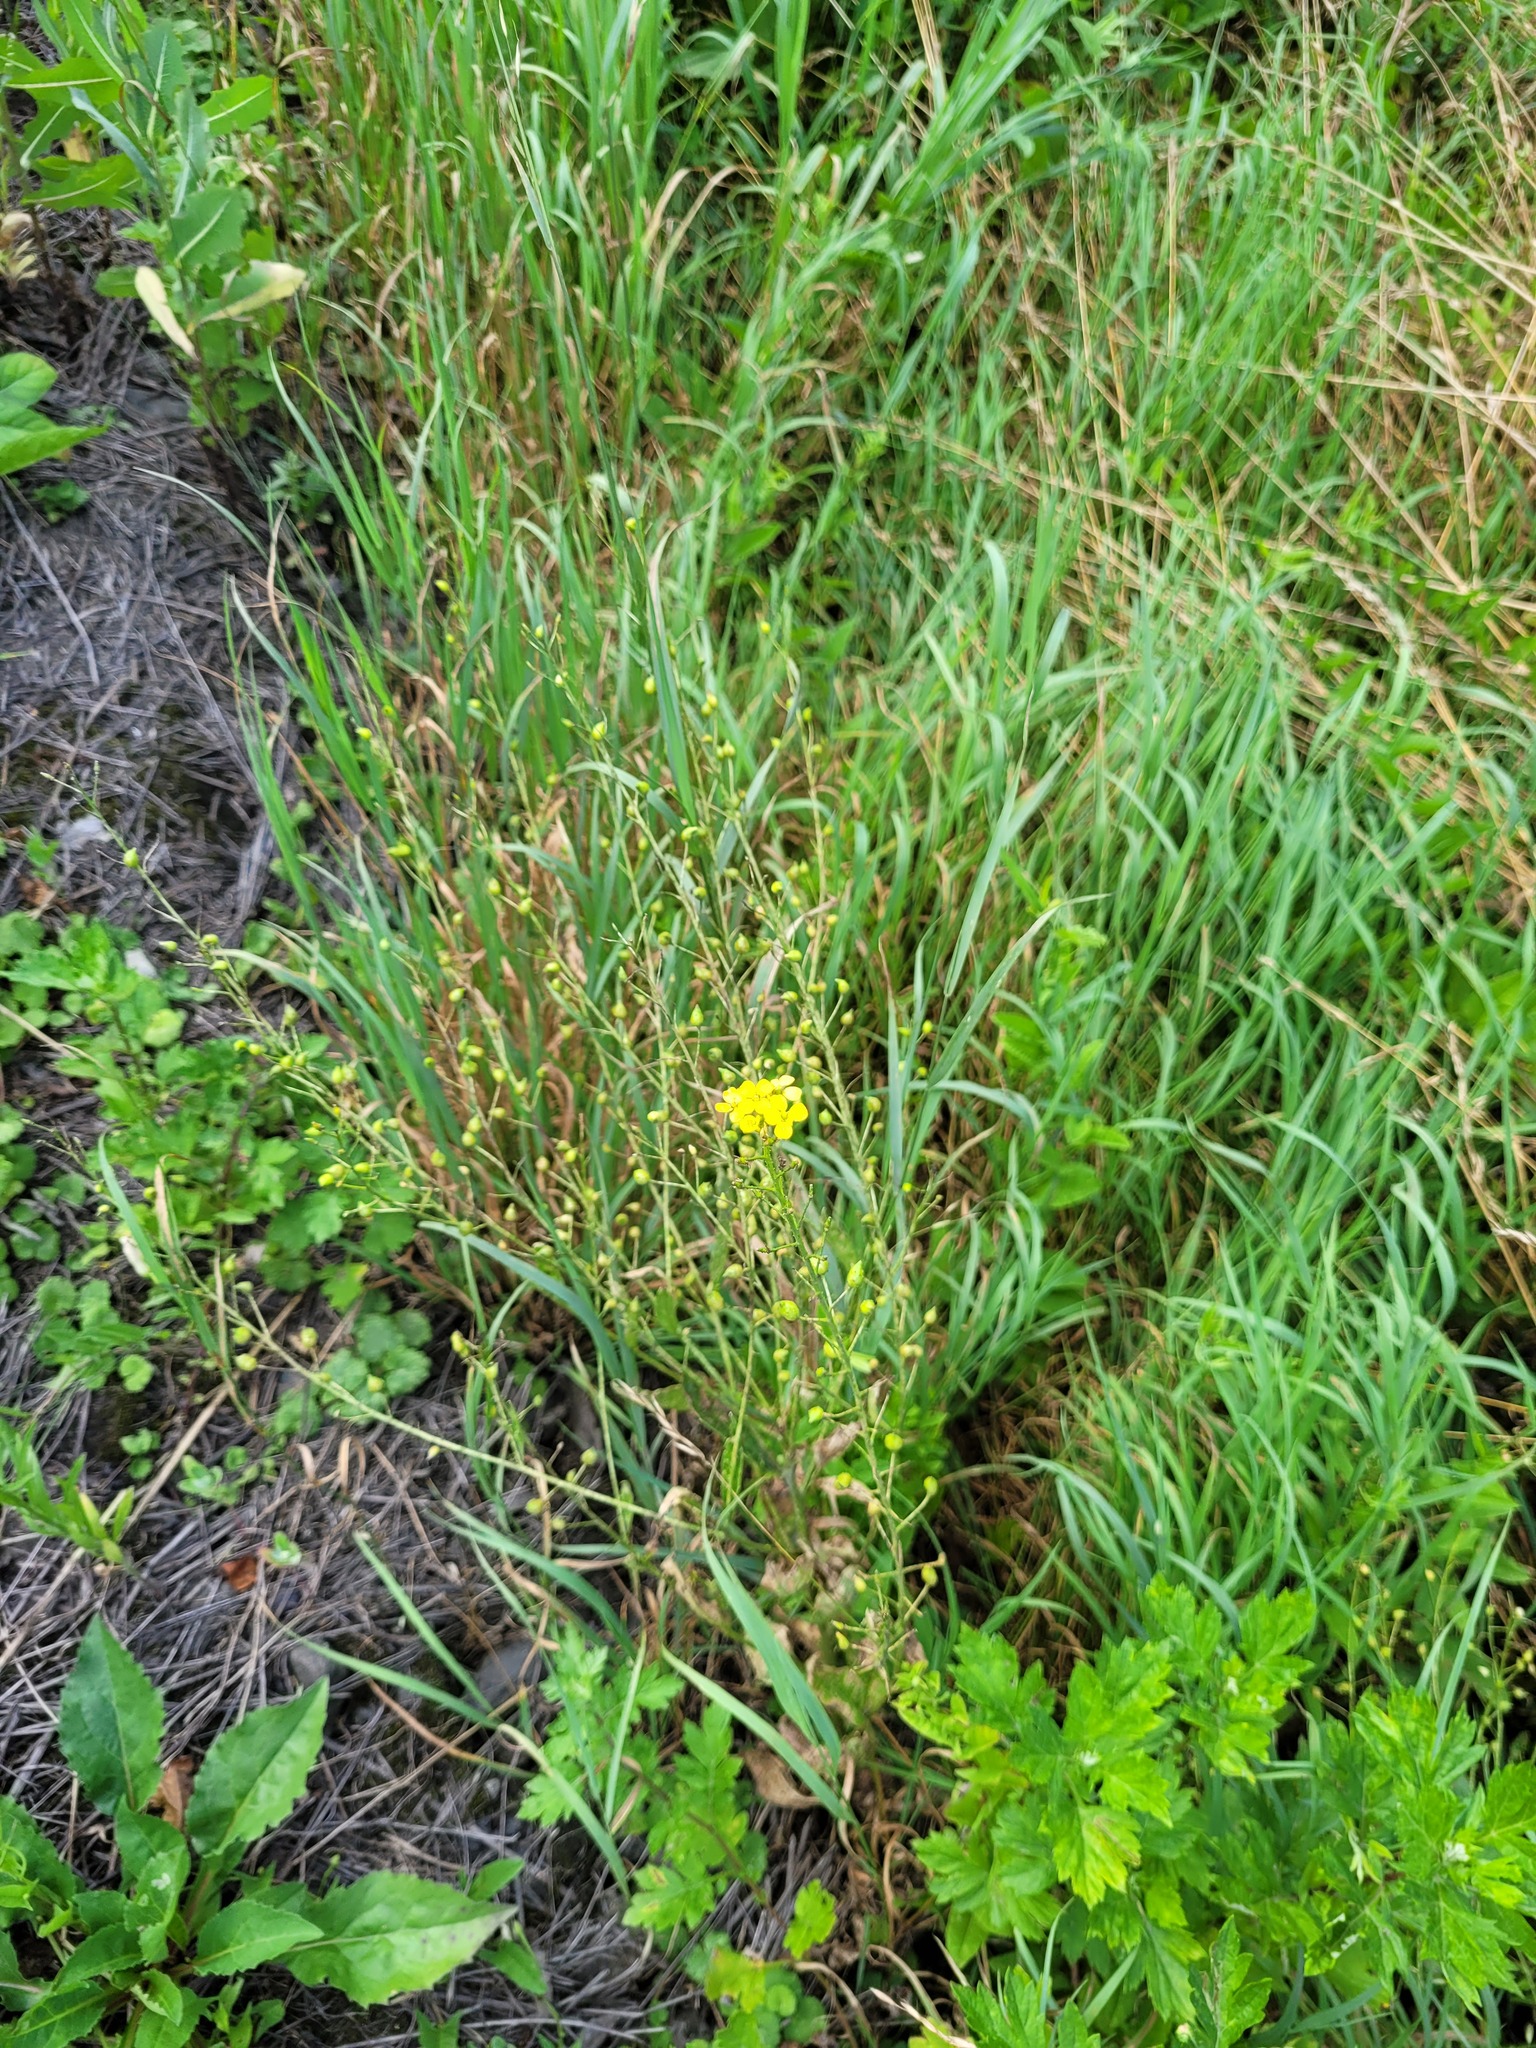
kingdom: Plantae
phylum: Tracheophyta
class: Magnoliopsida
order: Brassicales
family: Brassicaceae
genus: Bunias
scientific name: Bunias orientalis
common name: Warty-cabbage
